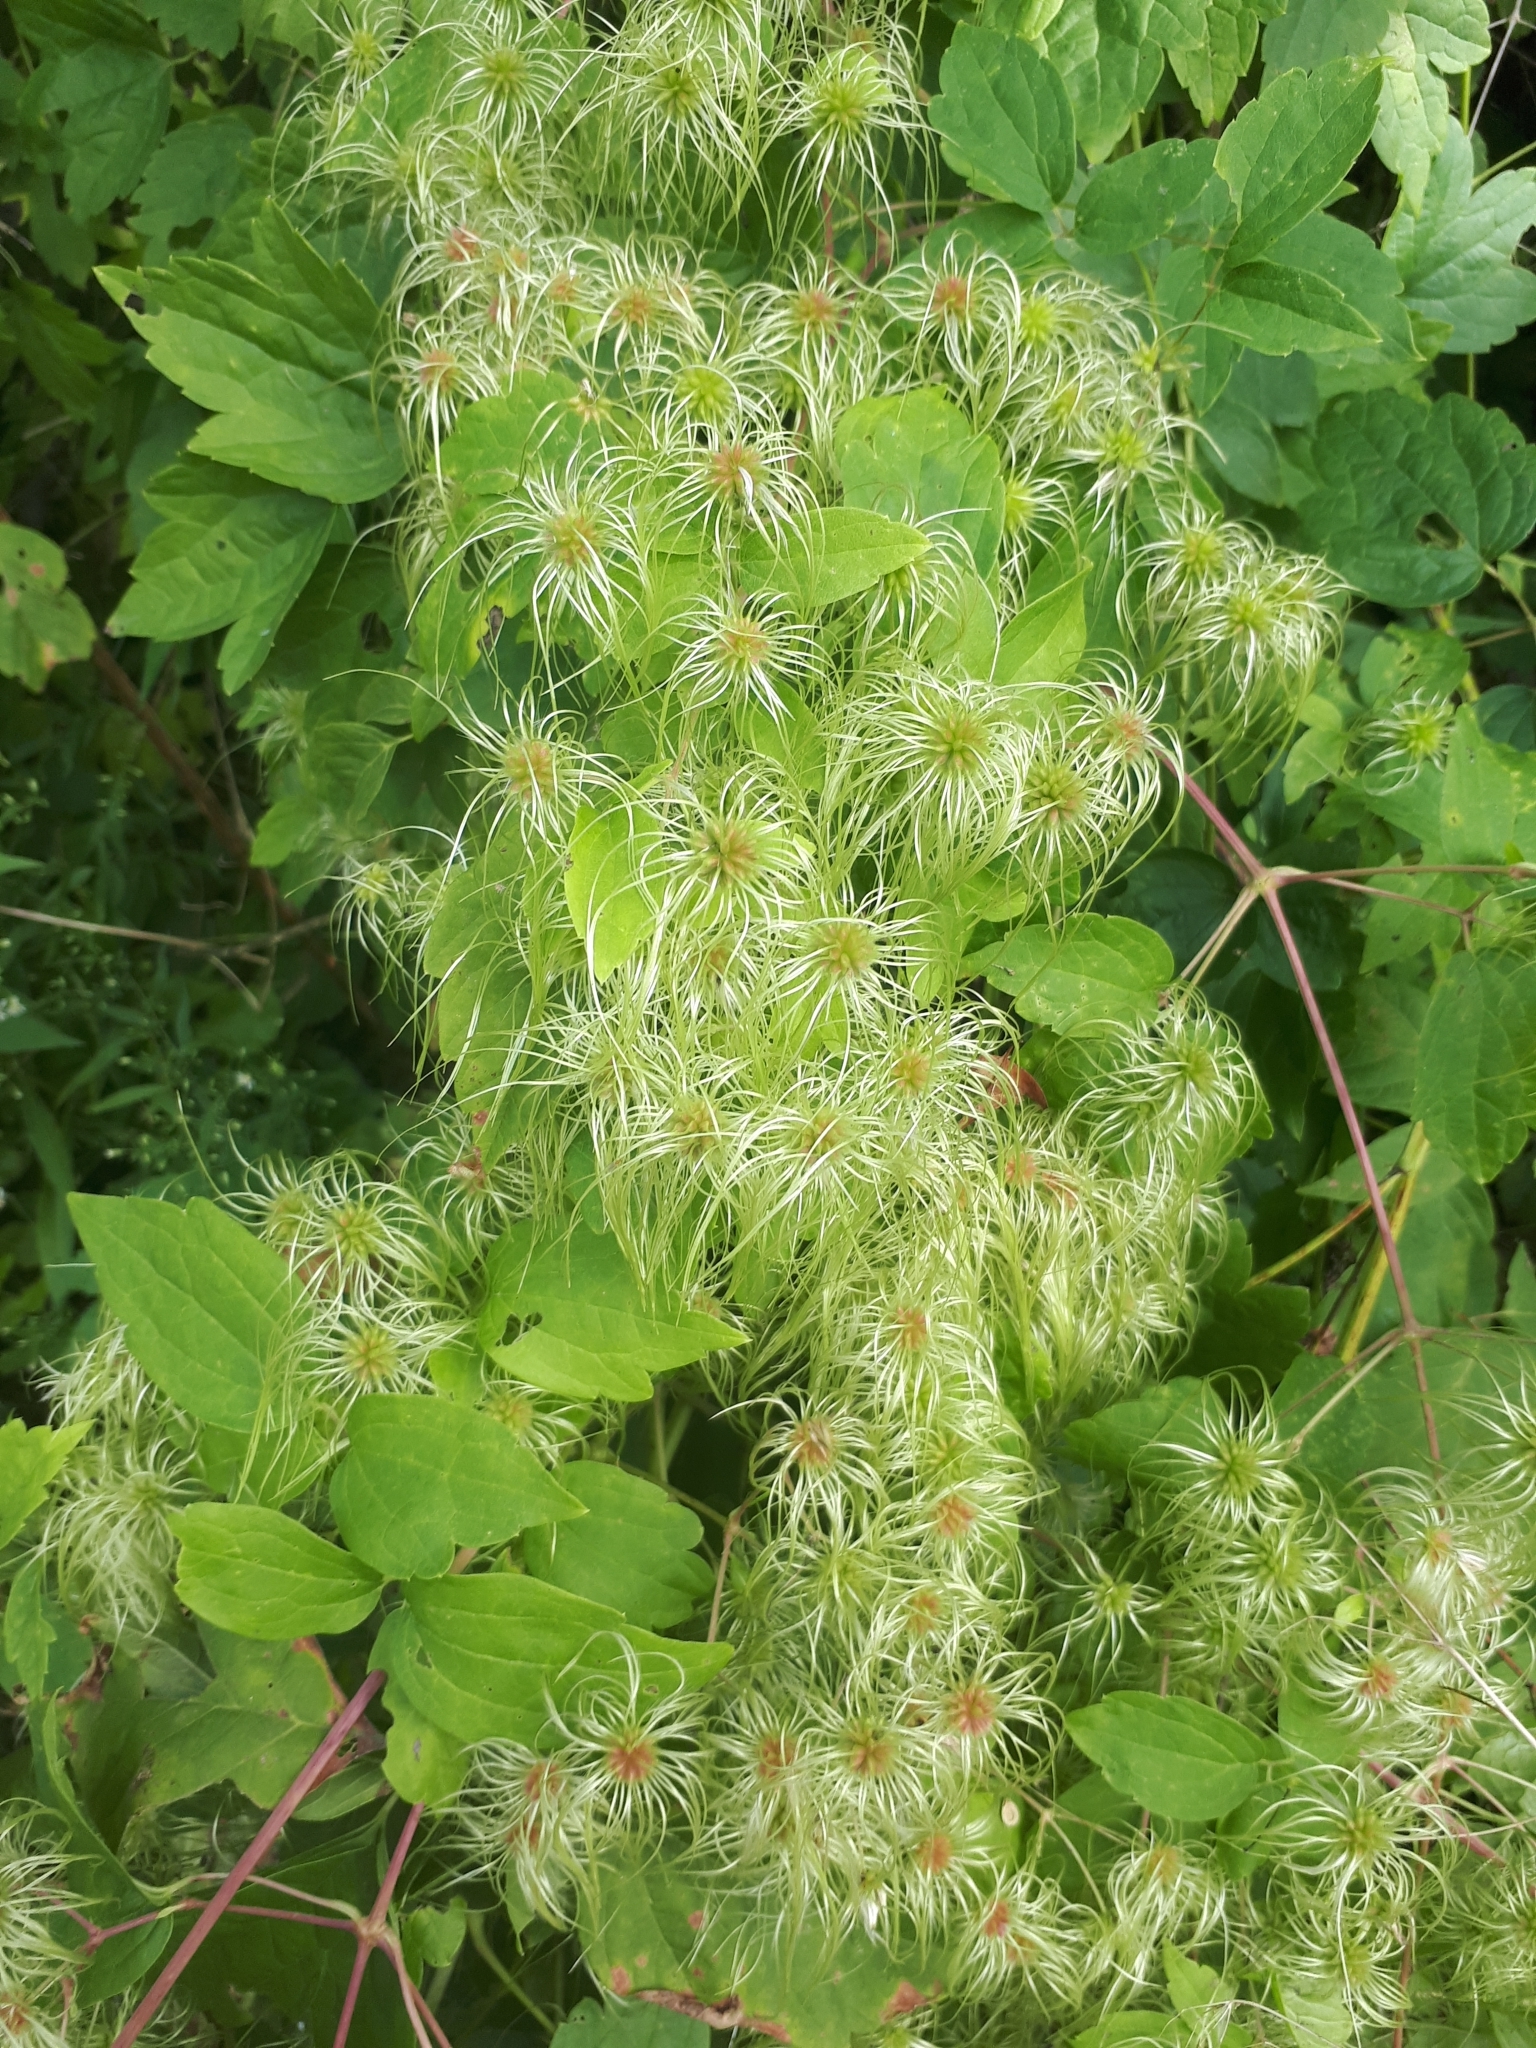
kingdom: Plantae
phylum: Tracheophyta
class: Magnoliopsida
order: Ranunculales
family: Ranunculaceae
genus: Clematis
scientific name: Clematis virginiana
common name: Virgin's-bower
